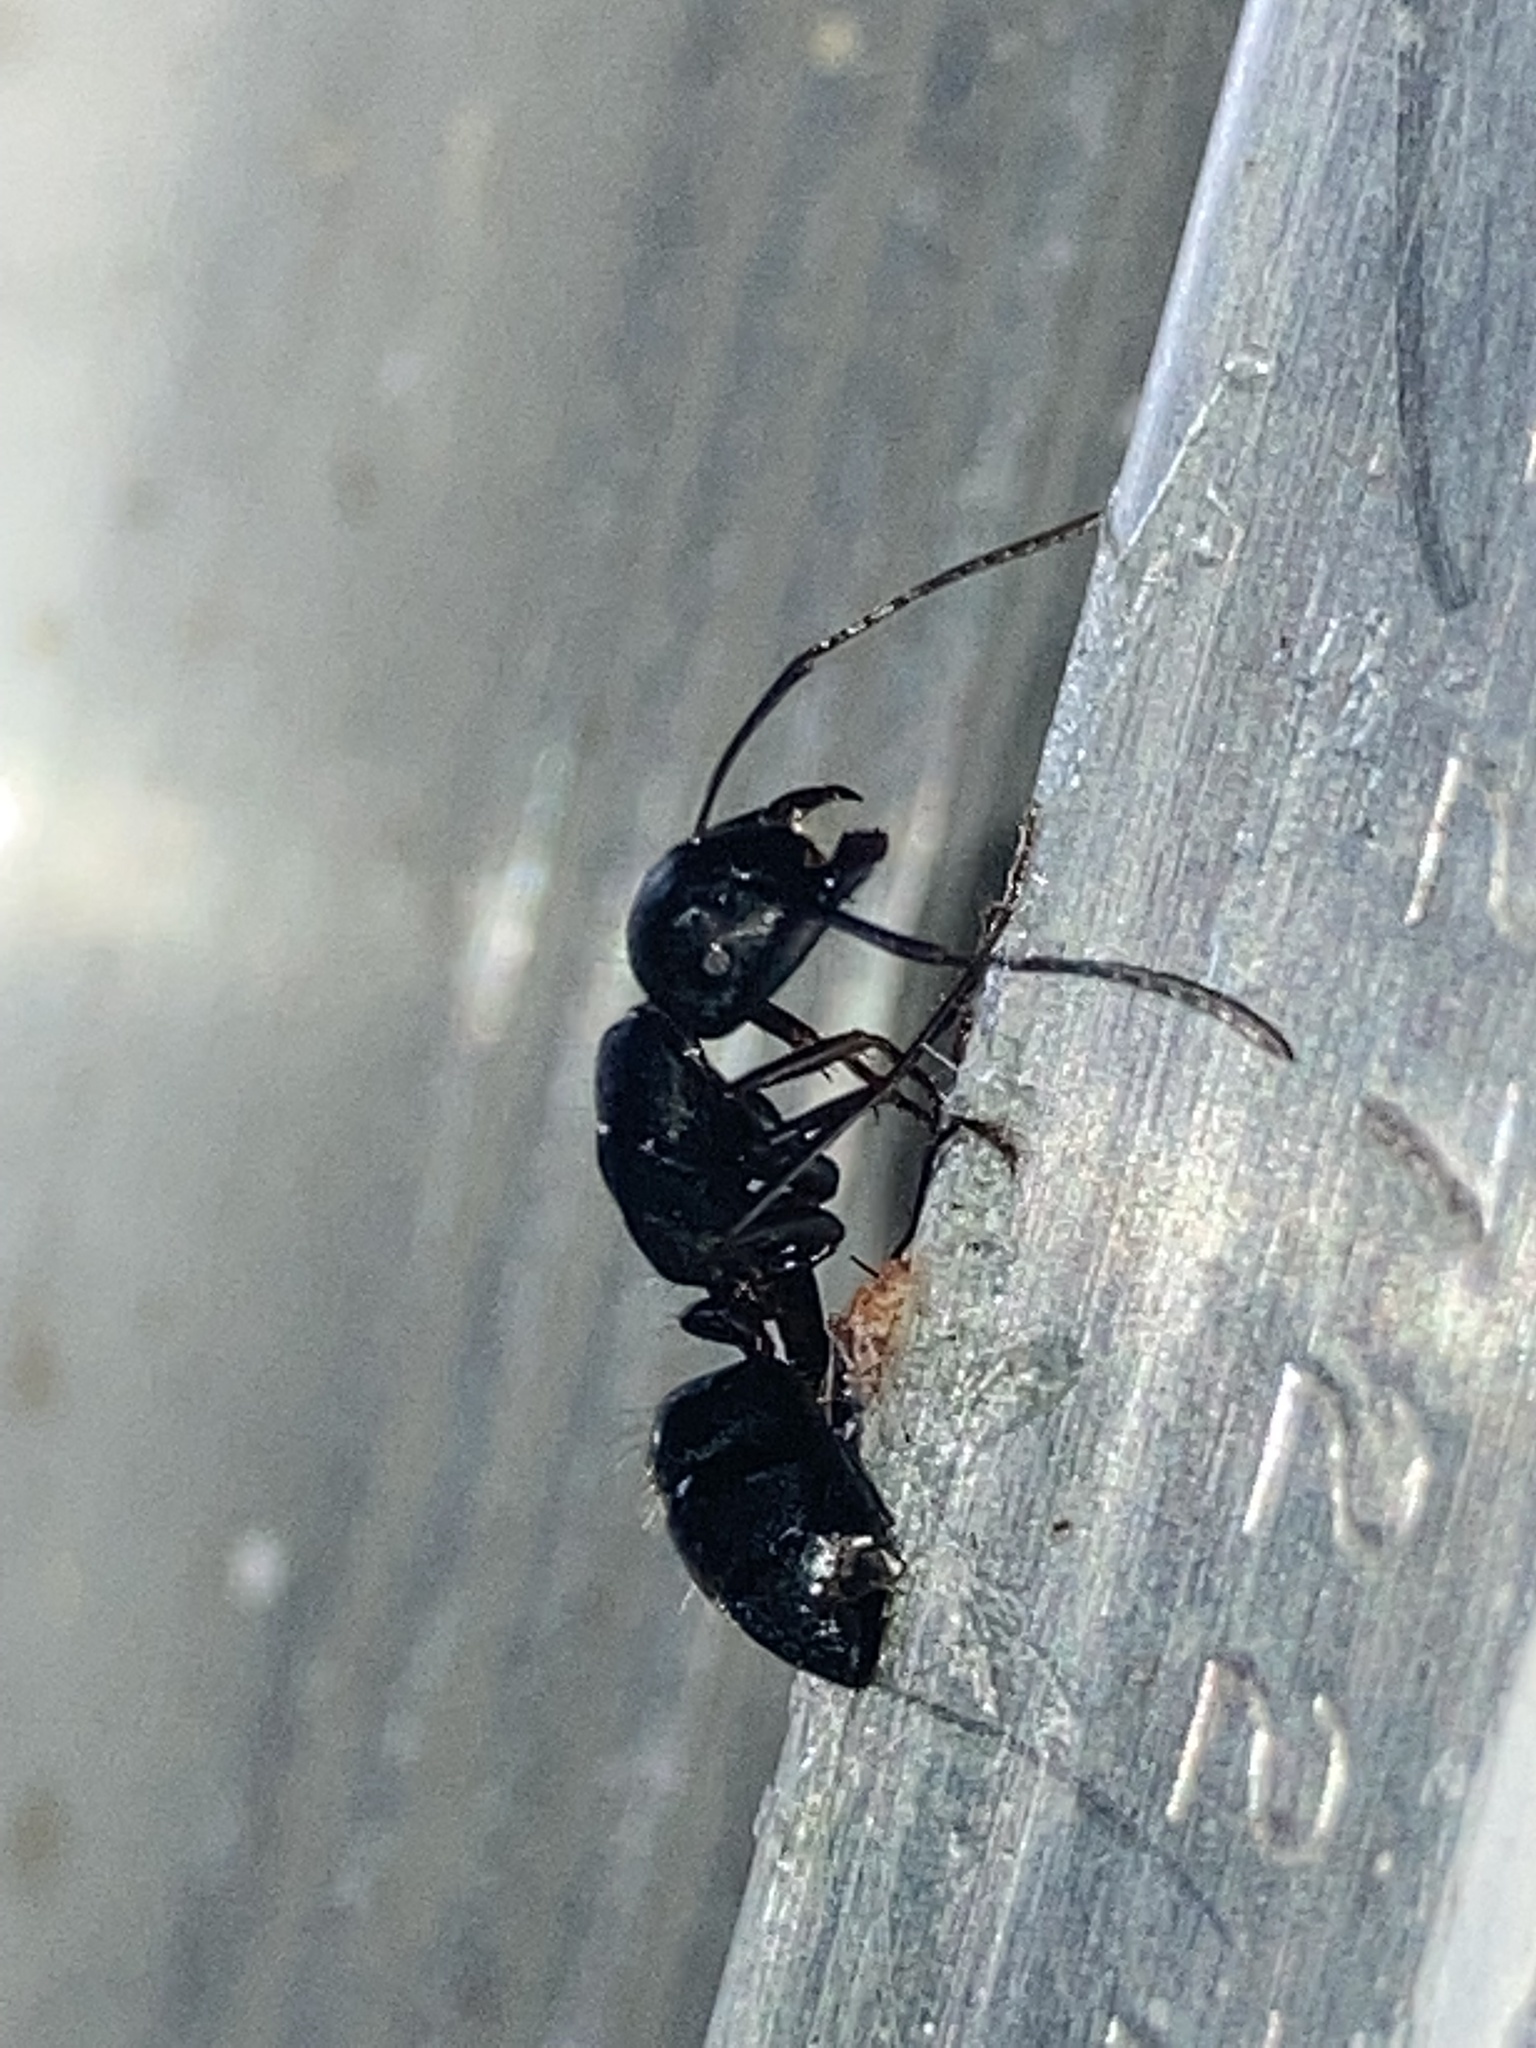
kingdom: Animalia
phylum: Arthropoda
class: Insecta
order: Hymenoptera
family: Formicidae
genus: Camponotus
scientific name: Camponotus pennsylvanicus
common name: Black carpenter ant
